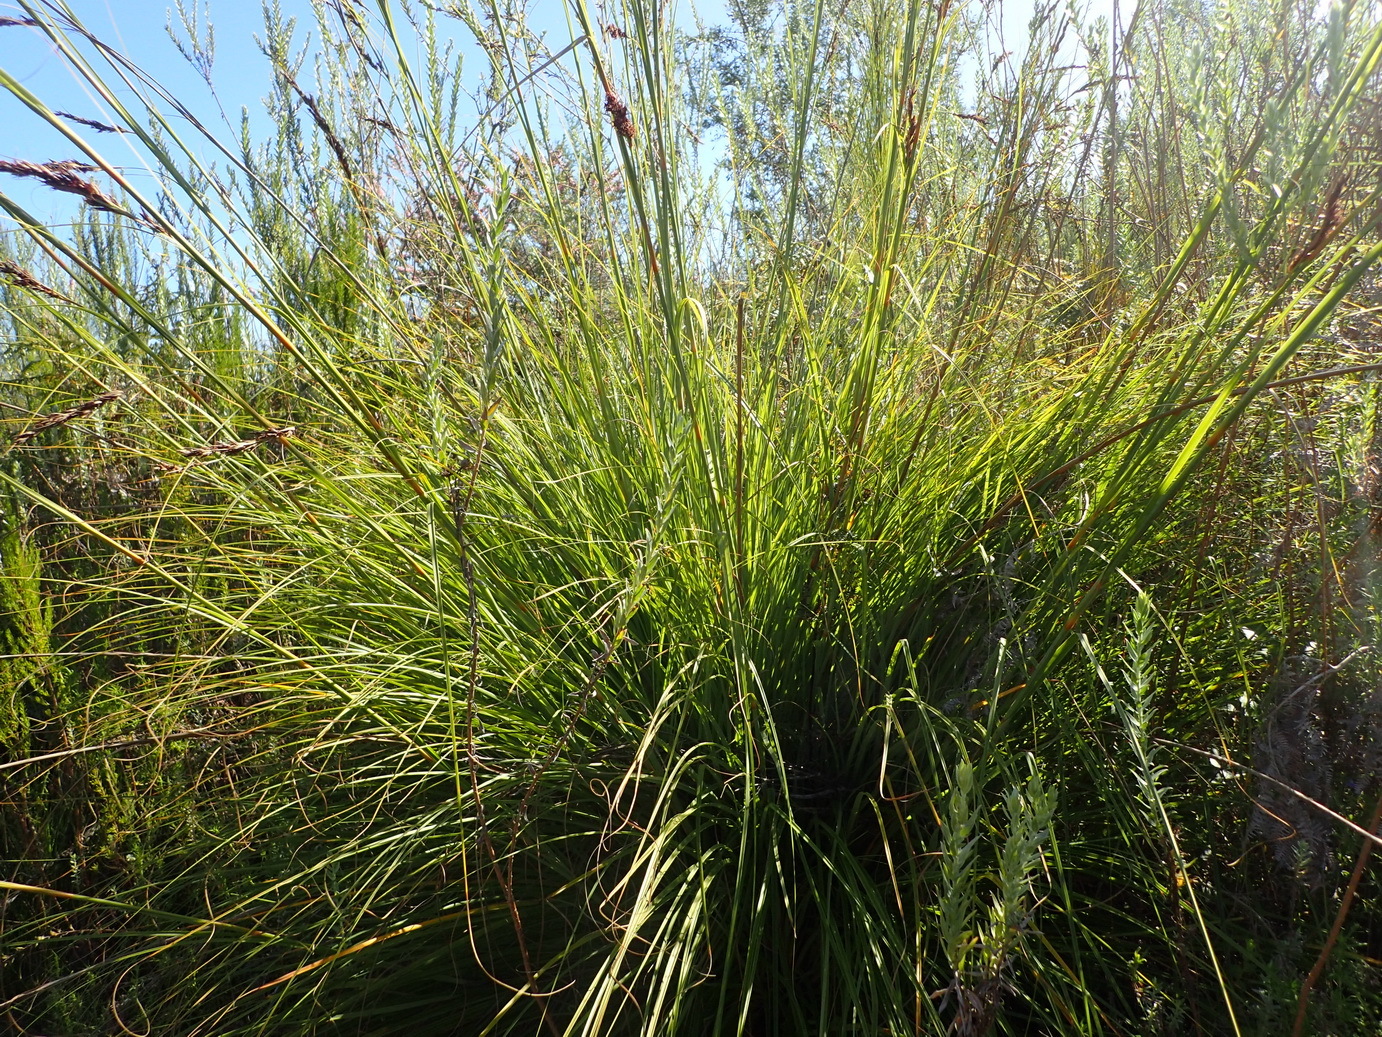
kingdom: Plantae
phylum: Tracheophyta
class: Liliopsida
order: Poales
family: Cyperaceae
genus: Tetraria
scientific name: Tetraria involucrata
